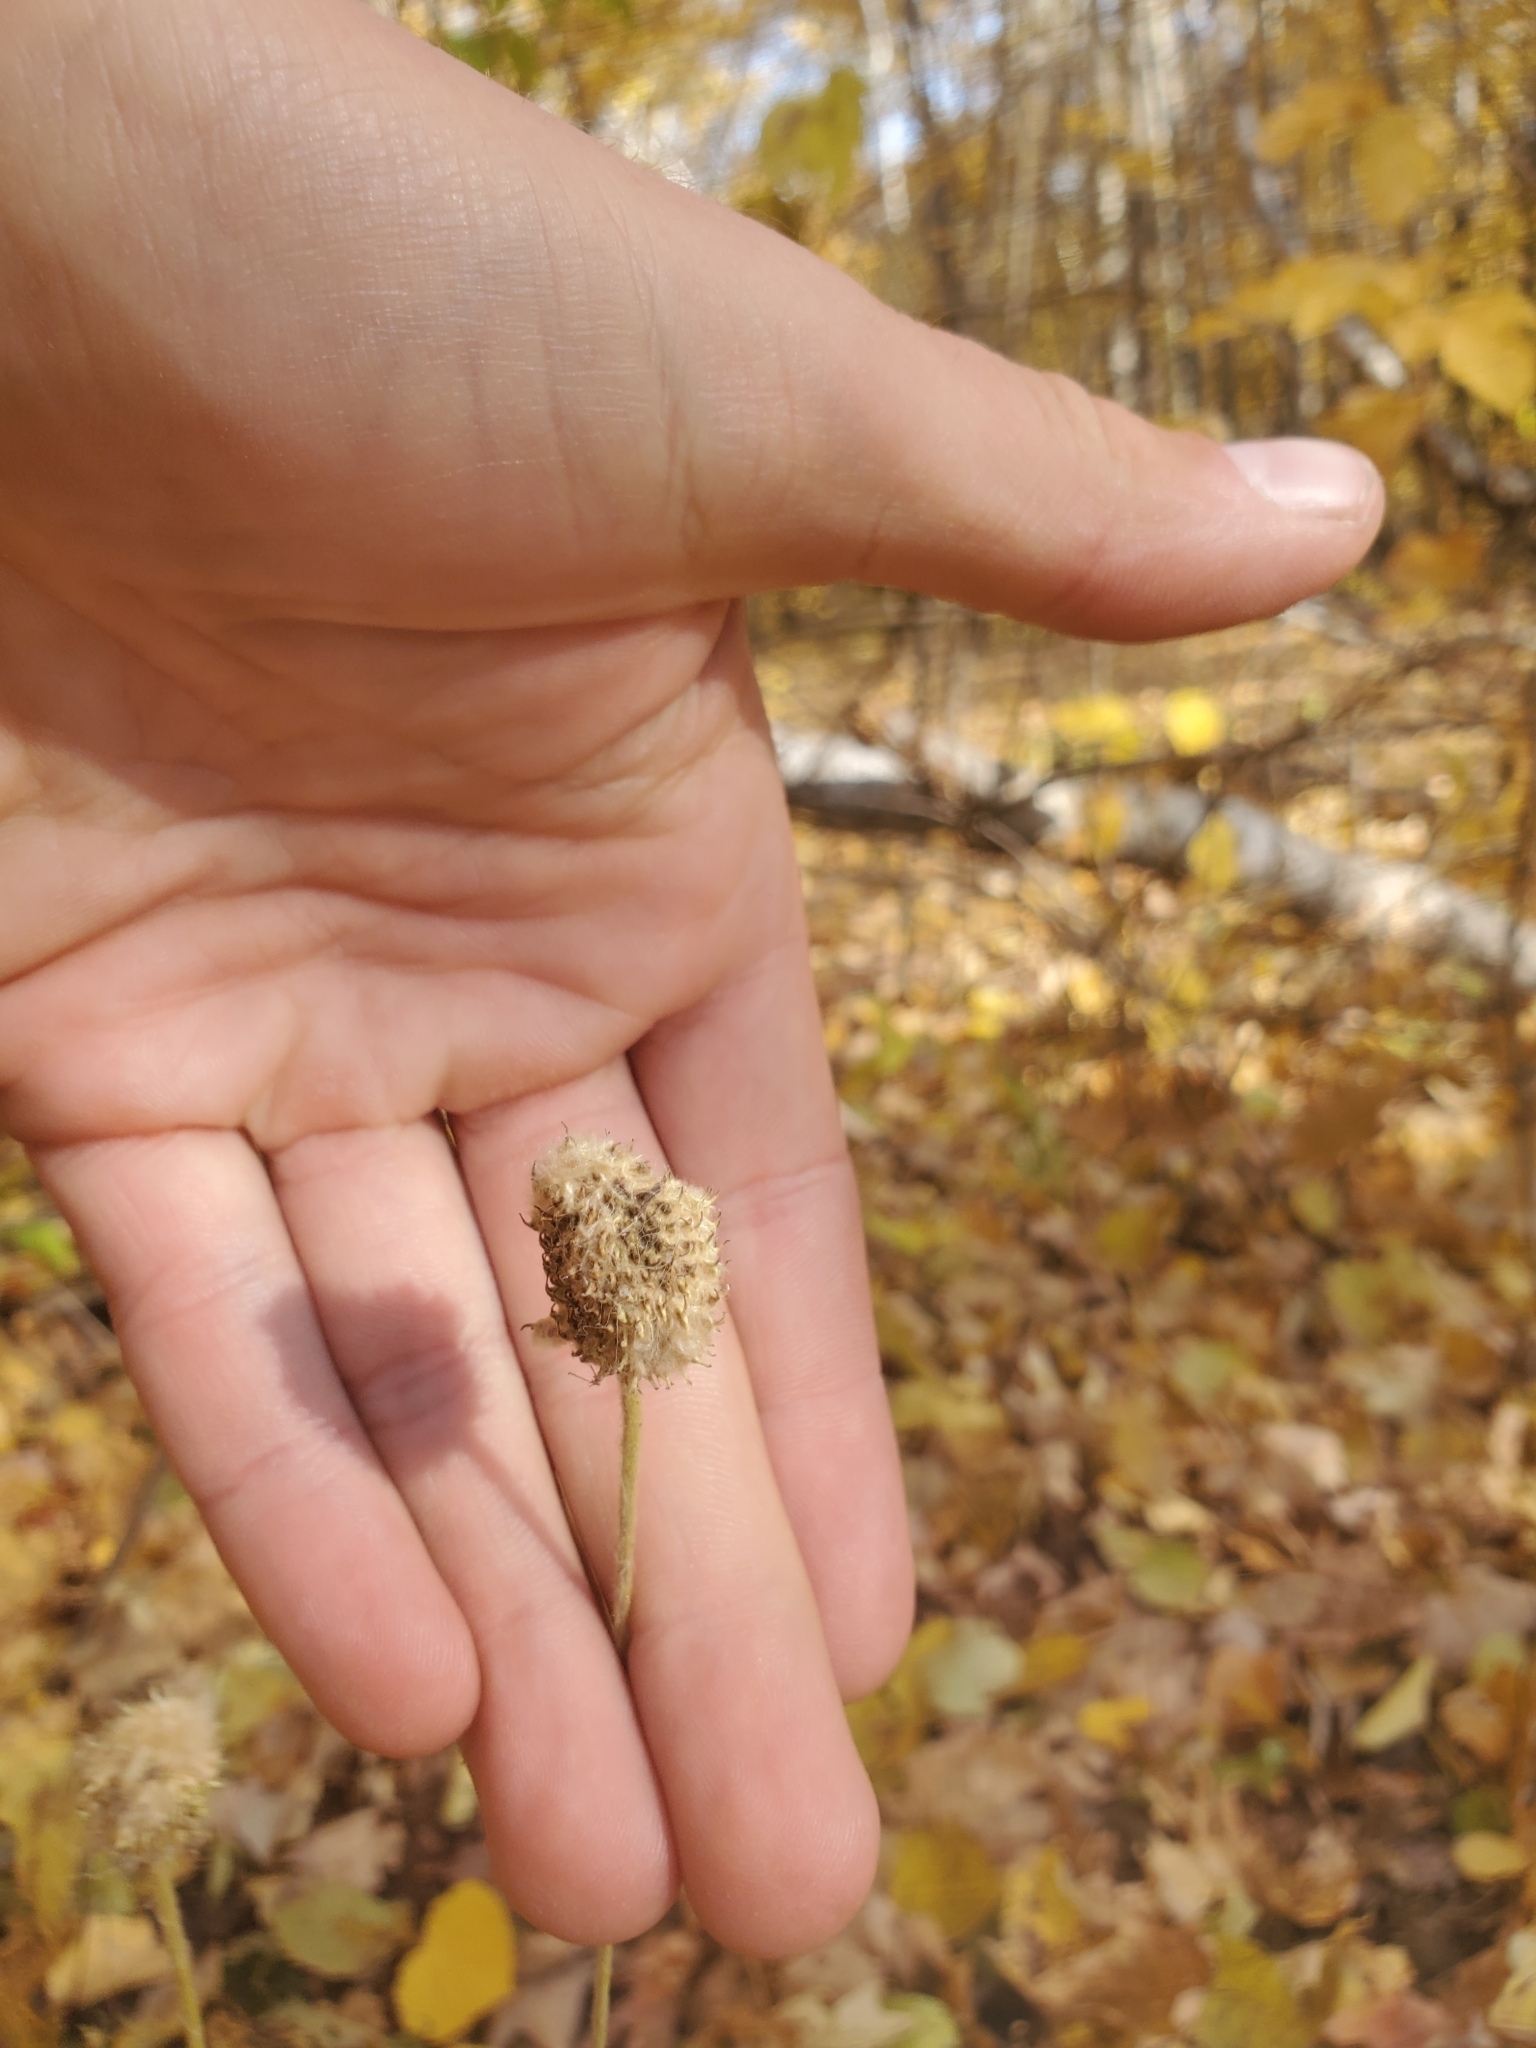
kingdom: Plantae
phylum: Tracheophyta
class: Magnoliopsida
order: Ranunculales
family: Ranunculaceae
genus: Anemone
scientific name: Anemone virginiana
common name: Tall anemone
